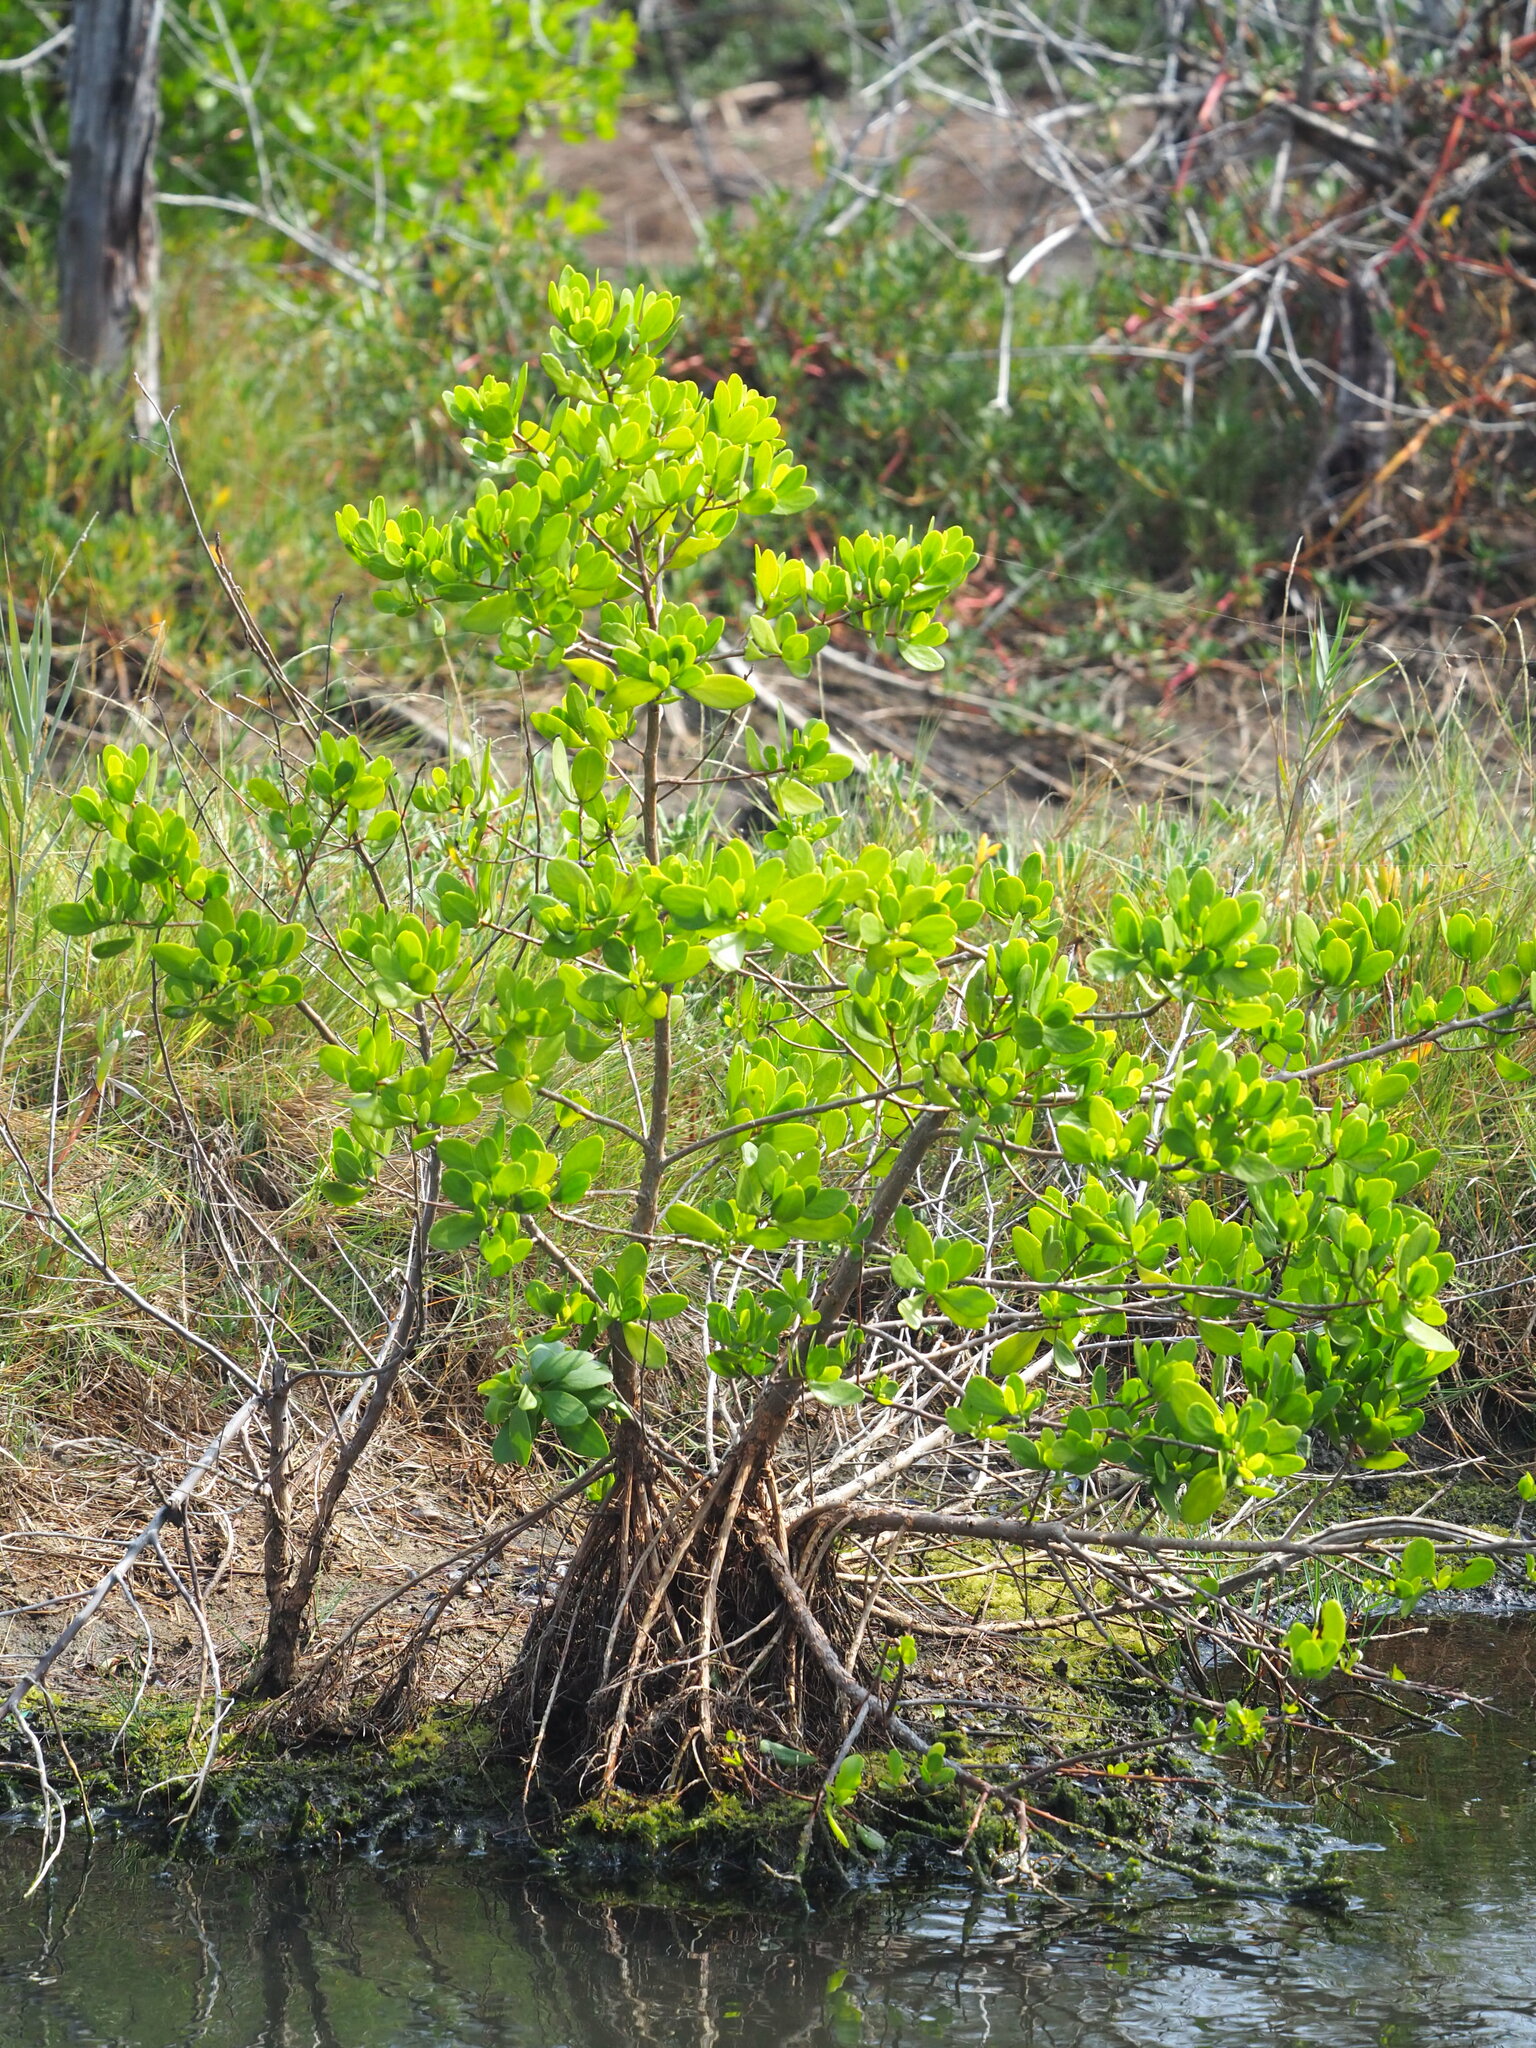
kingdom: Plantae
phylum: Tracheophyta
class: Magnoliopsida
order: Myrtales
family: Combretaceae
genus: Lumnitzera
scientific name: Lumnitzera racemosa
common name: White-flowered black mangrove
